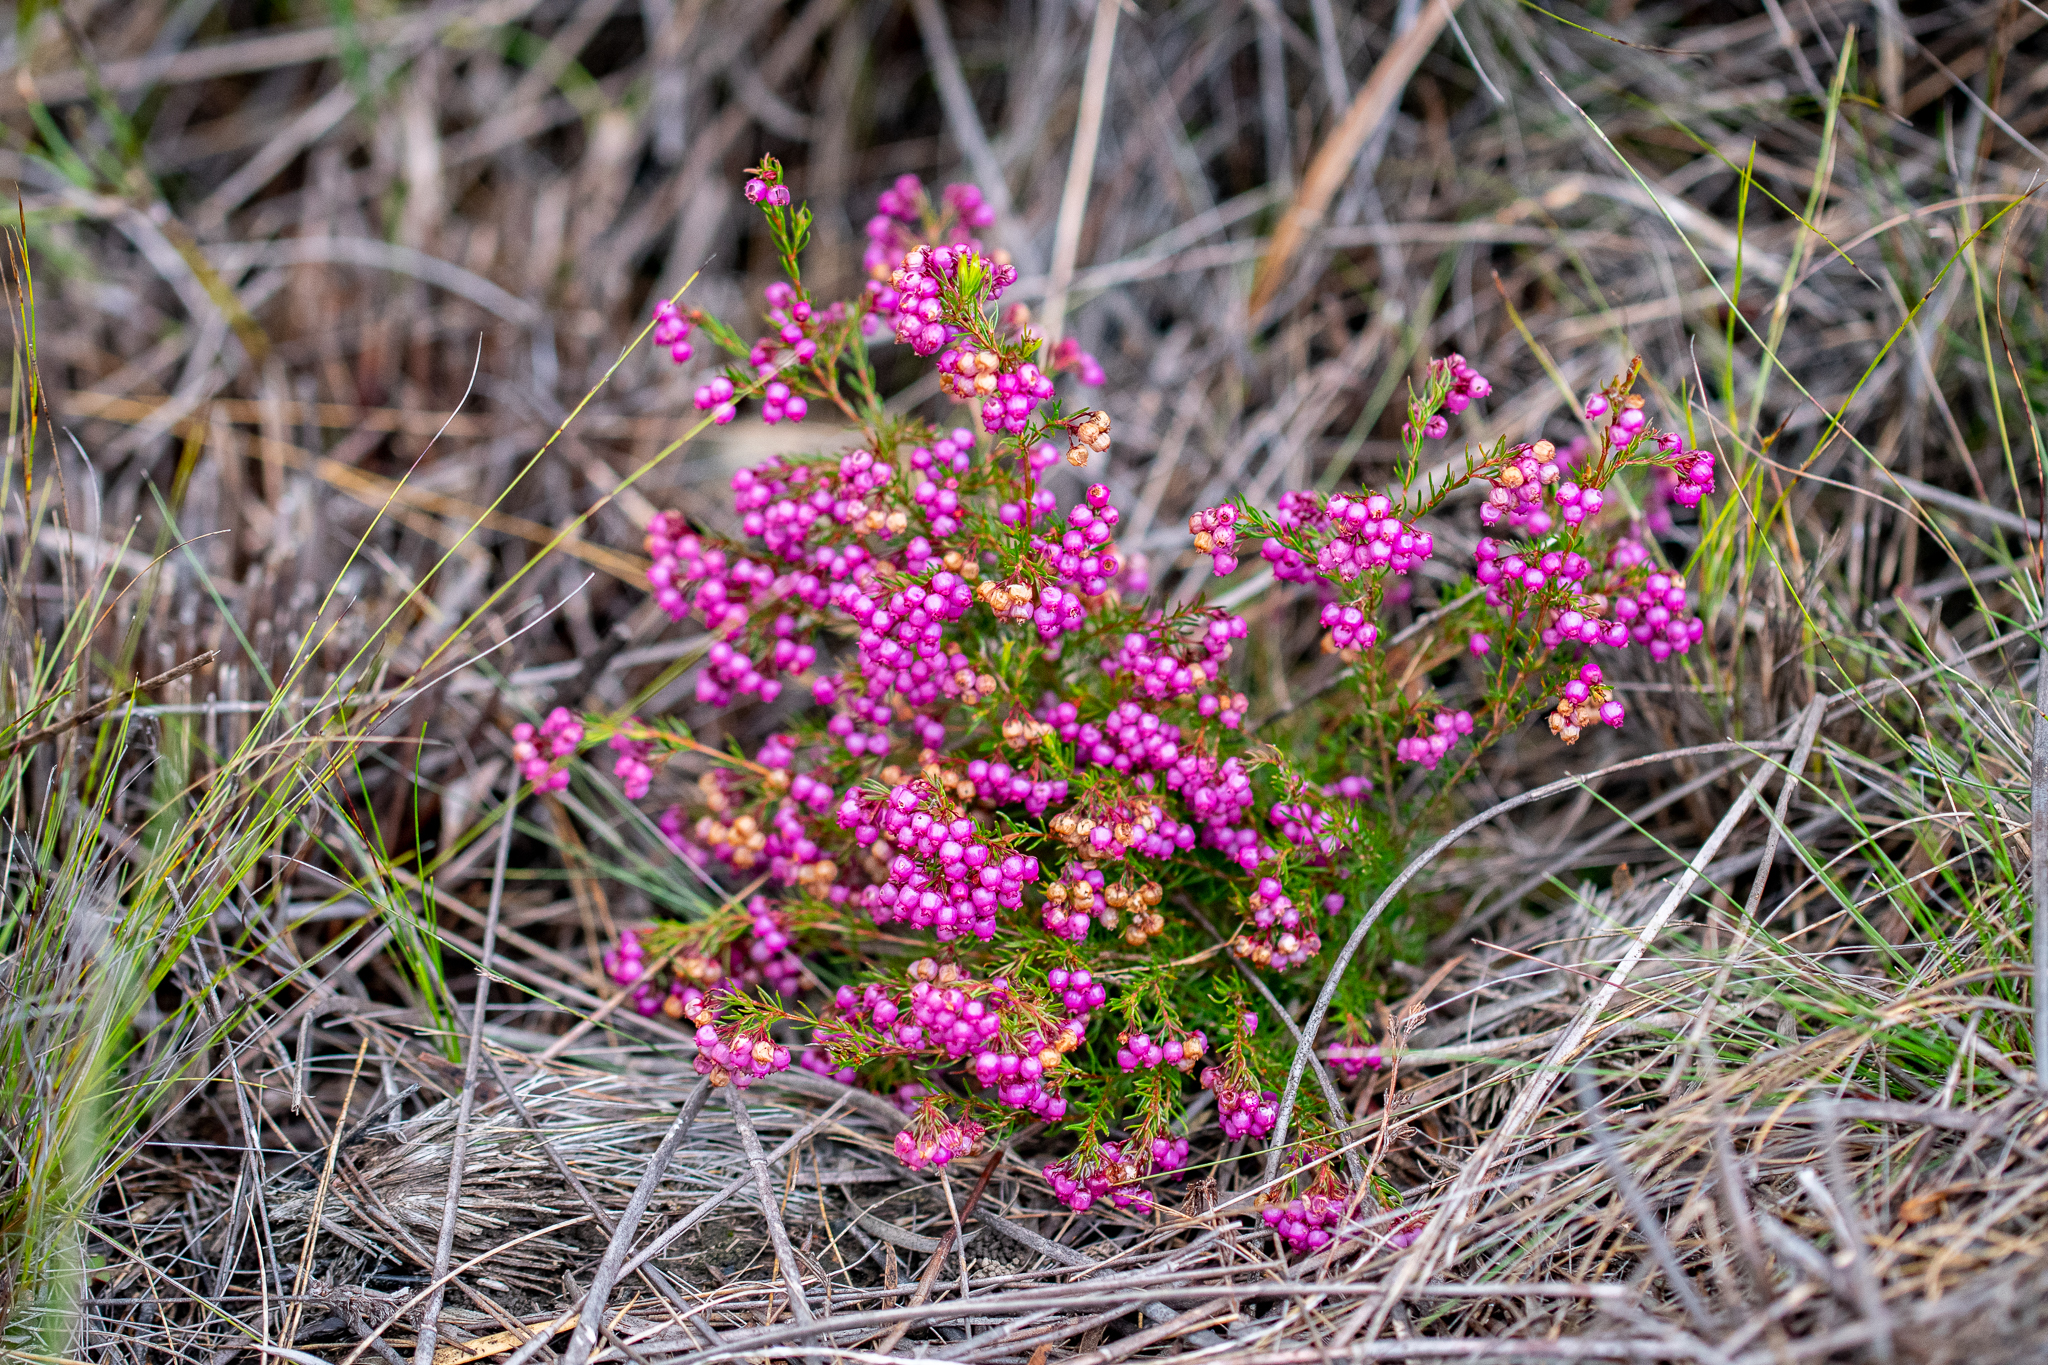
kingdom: Plantae
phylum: Tracheophyta
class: Magnoliopsida
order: Ericales
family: Ericaceae
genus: Erica
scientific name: Erica multumbellifera
